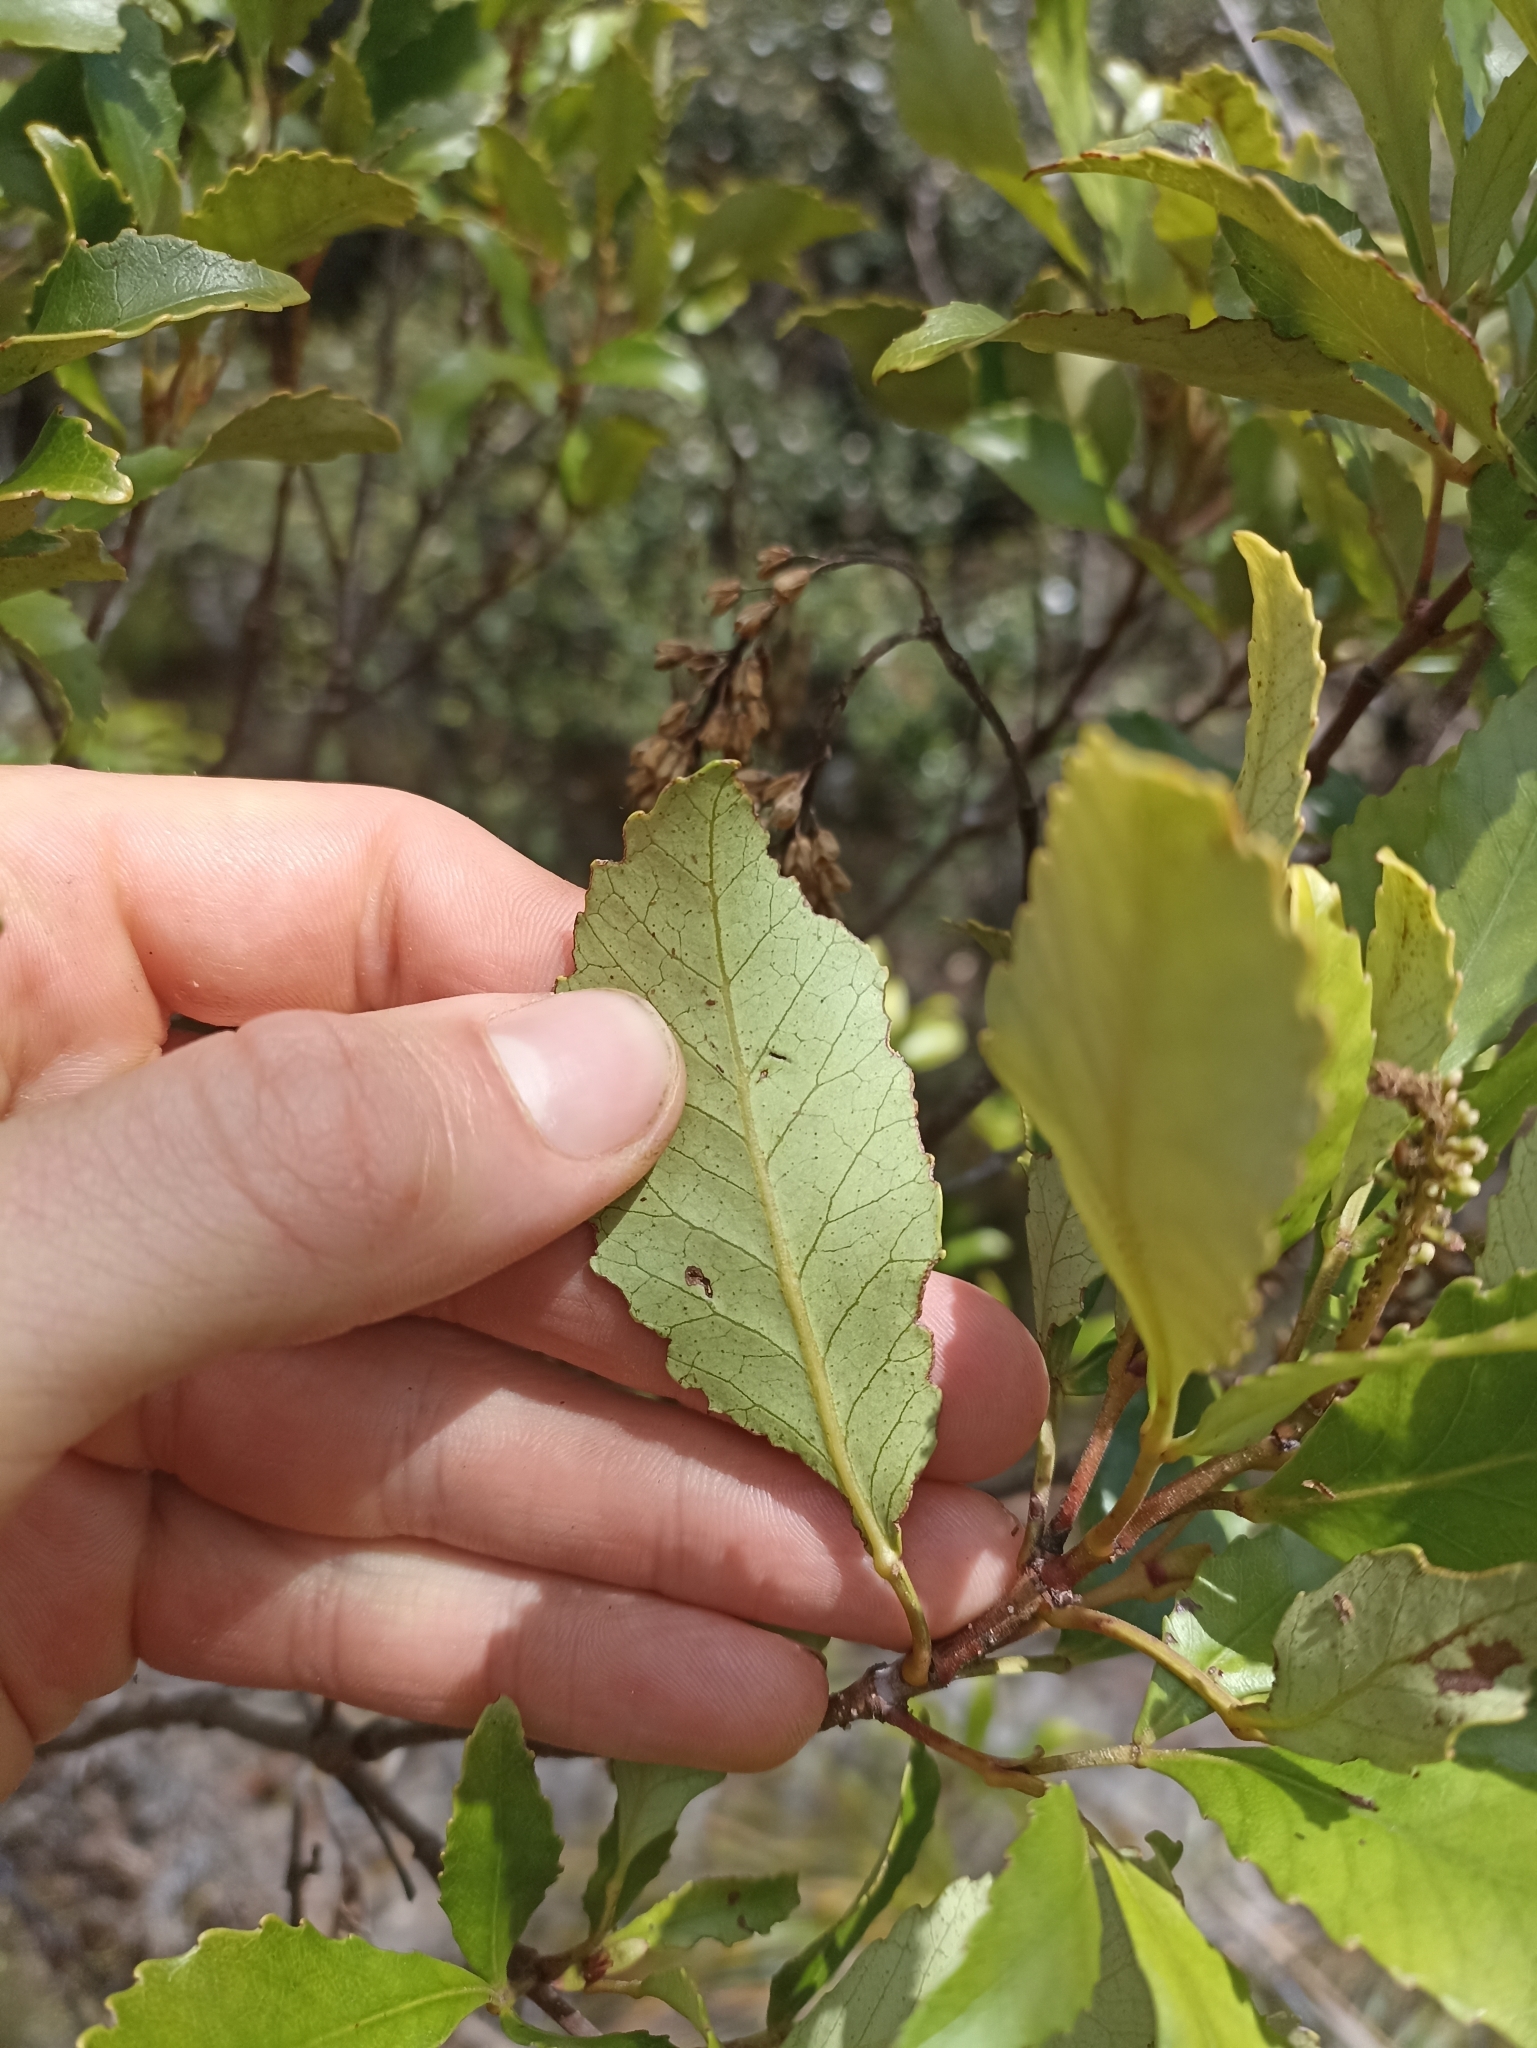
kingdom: Plantae
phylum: Tracheophyta
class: Magnoliopsida
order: Oxalidales
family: Cunoniaceae
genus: Pterophylla
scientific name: Pterophylla sylvicola
